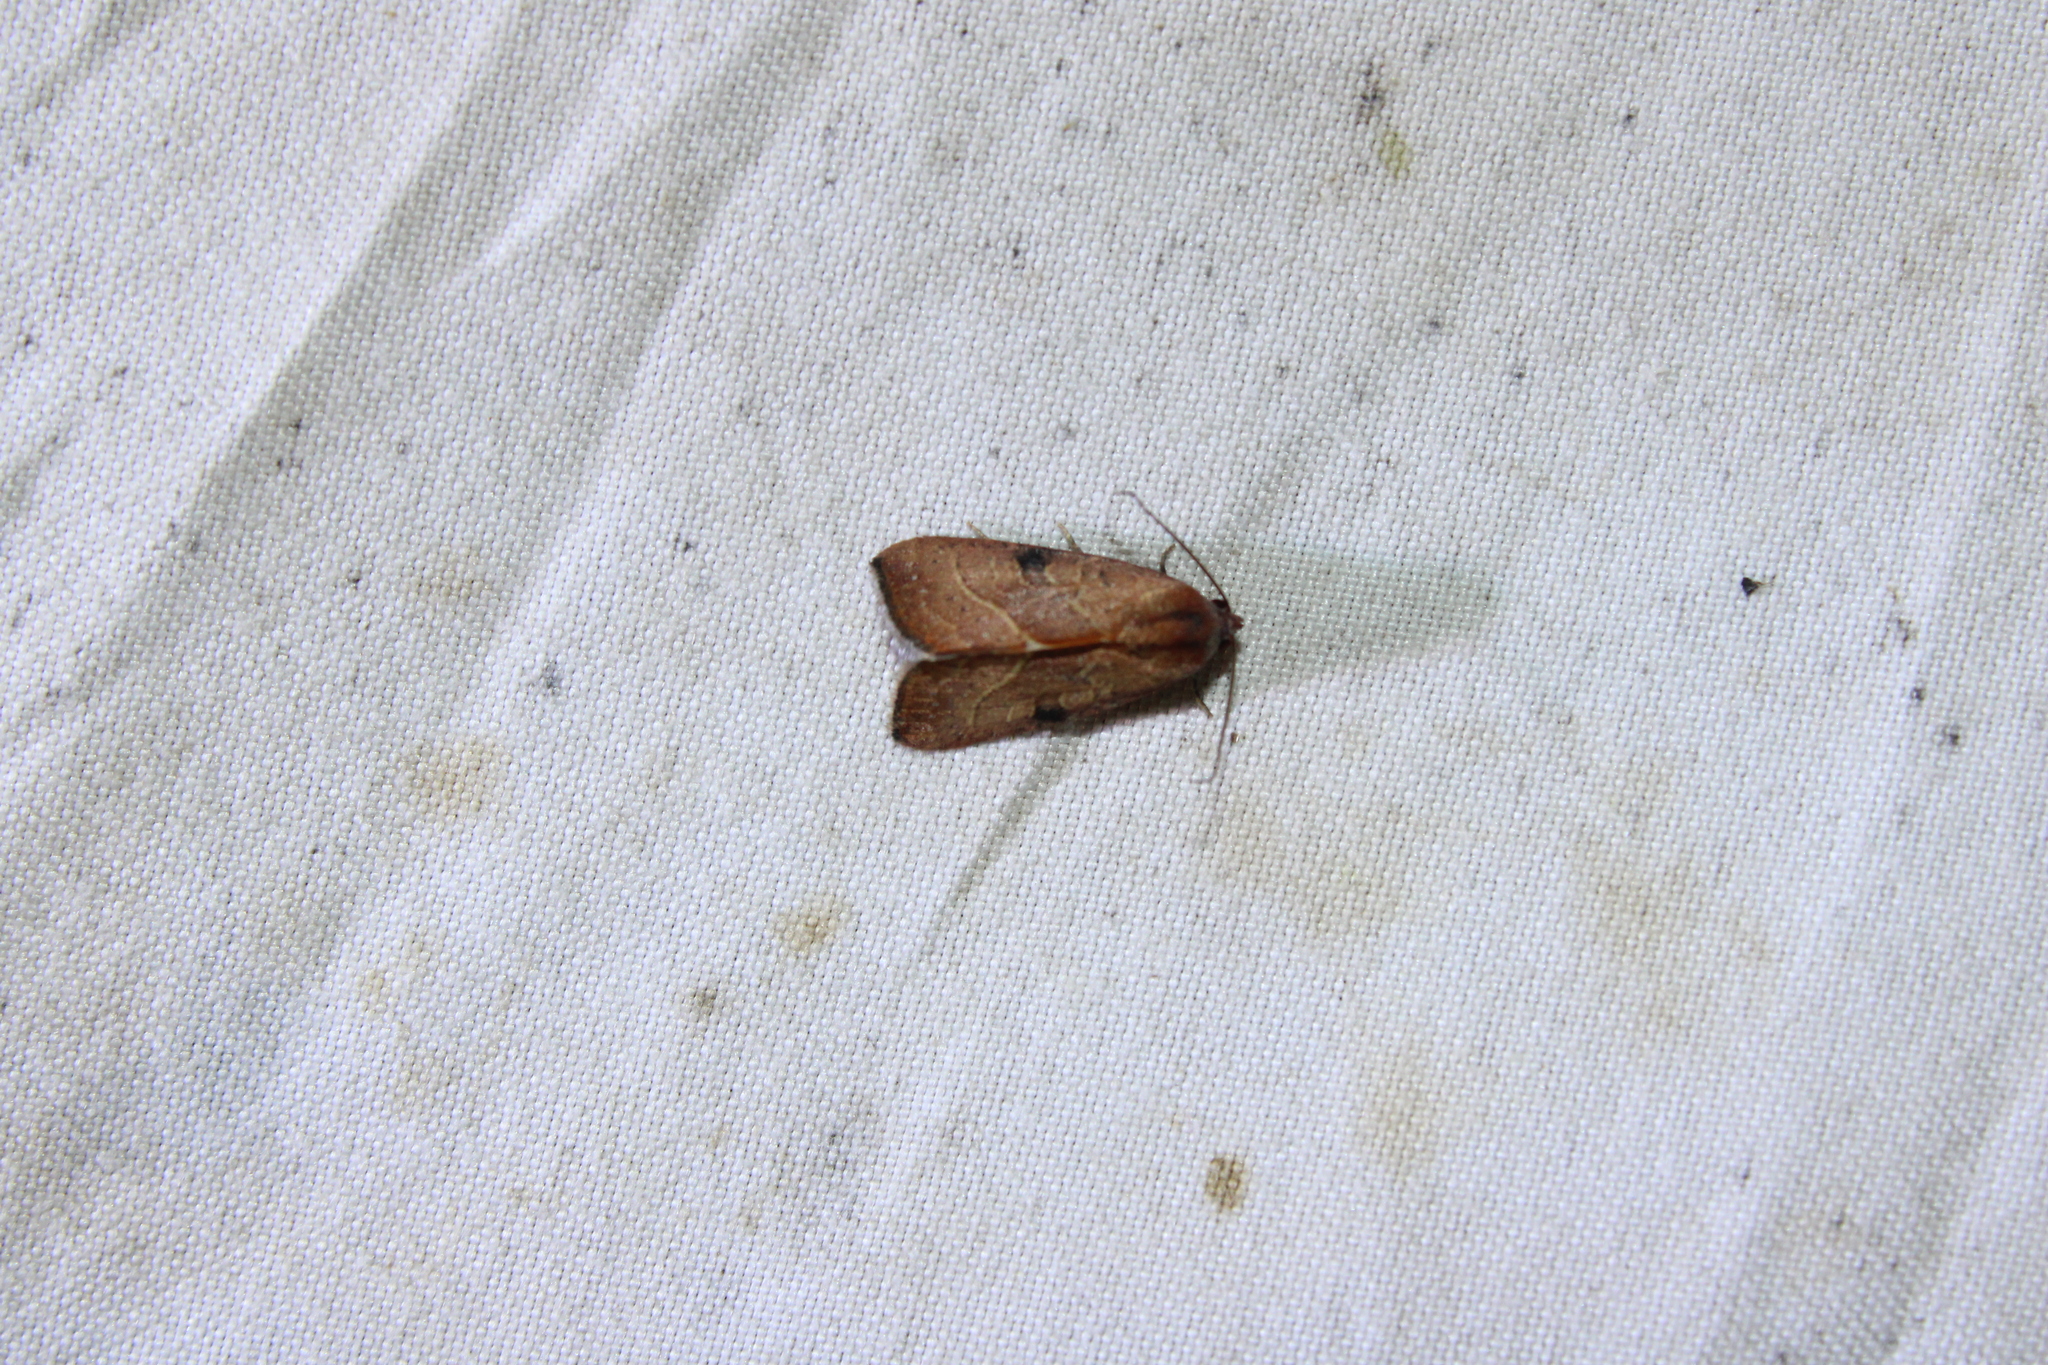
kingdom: Animalia
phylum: Arthropoda
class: Insecta
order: Lepidoptera
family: Noctuidae
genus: Galgula
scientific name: Galgula partita
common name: Wedgeling
